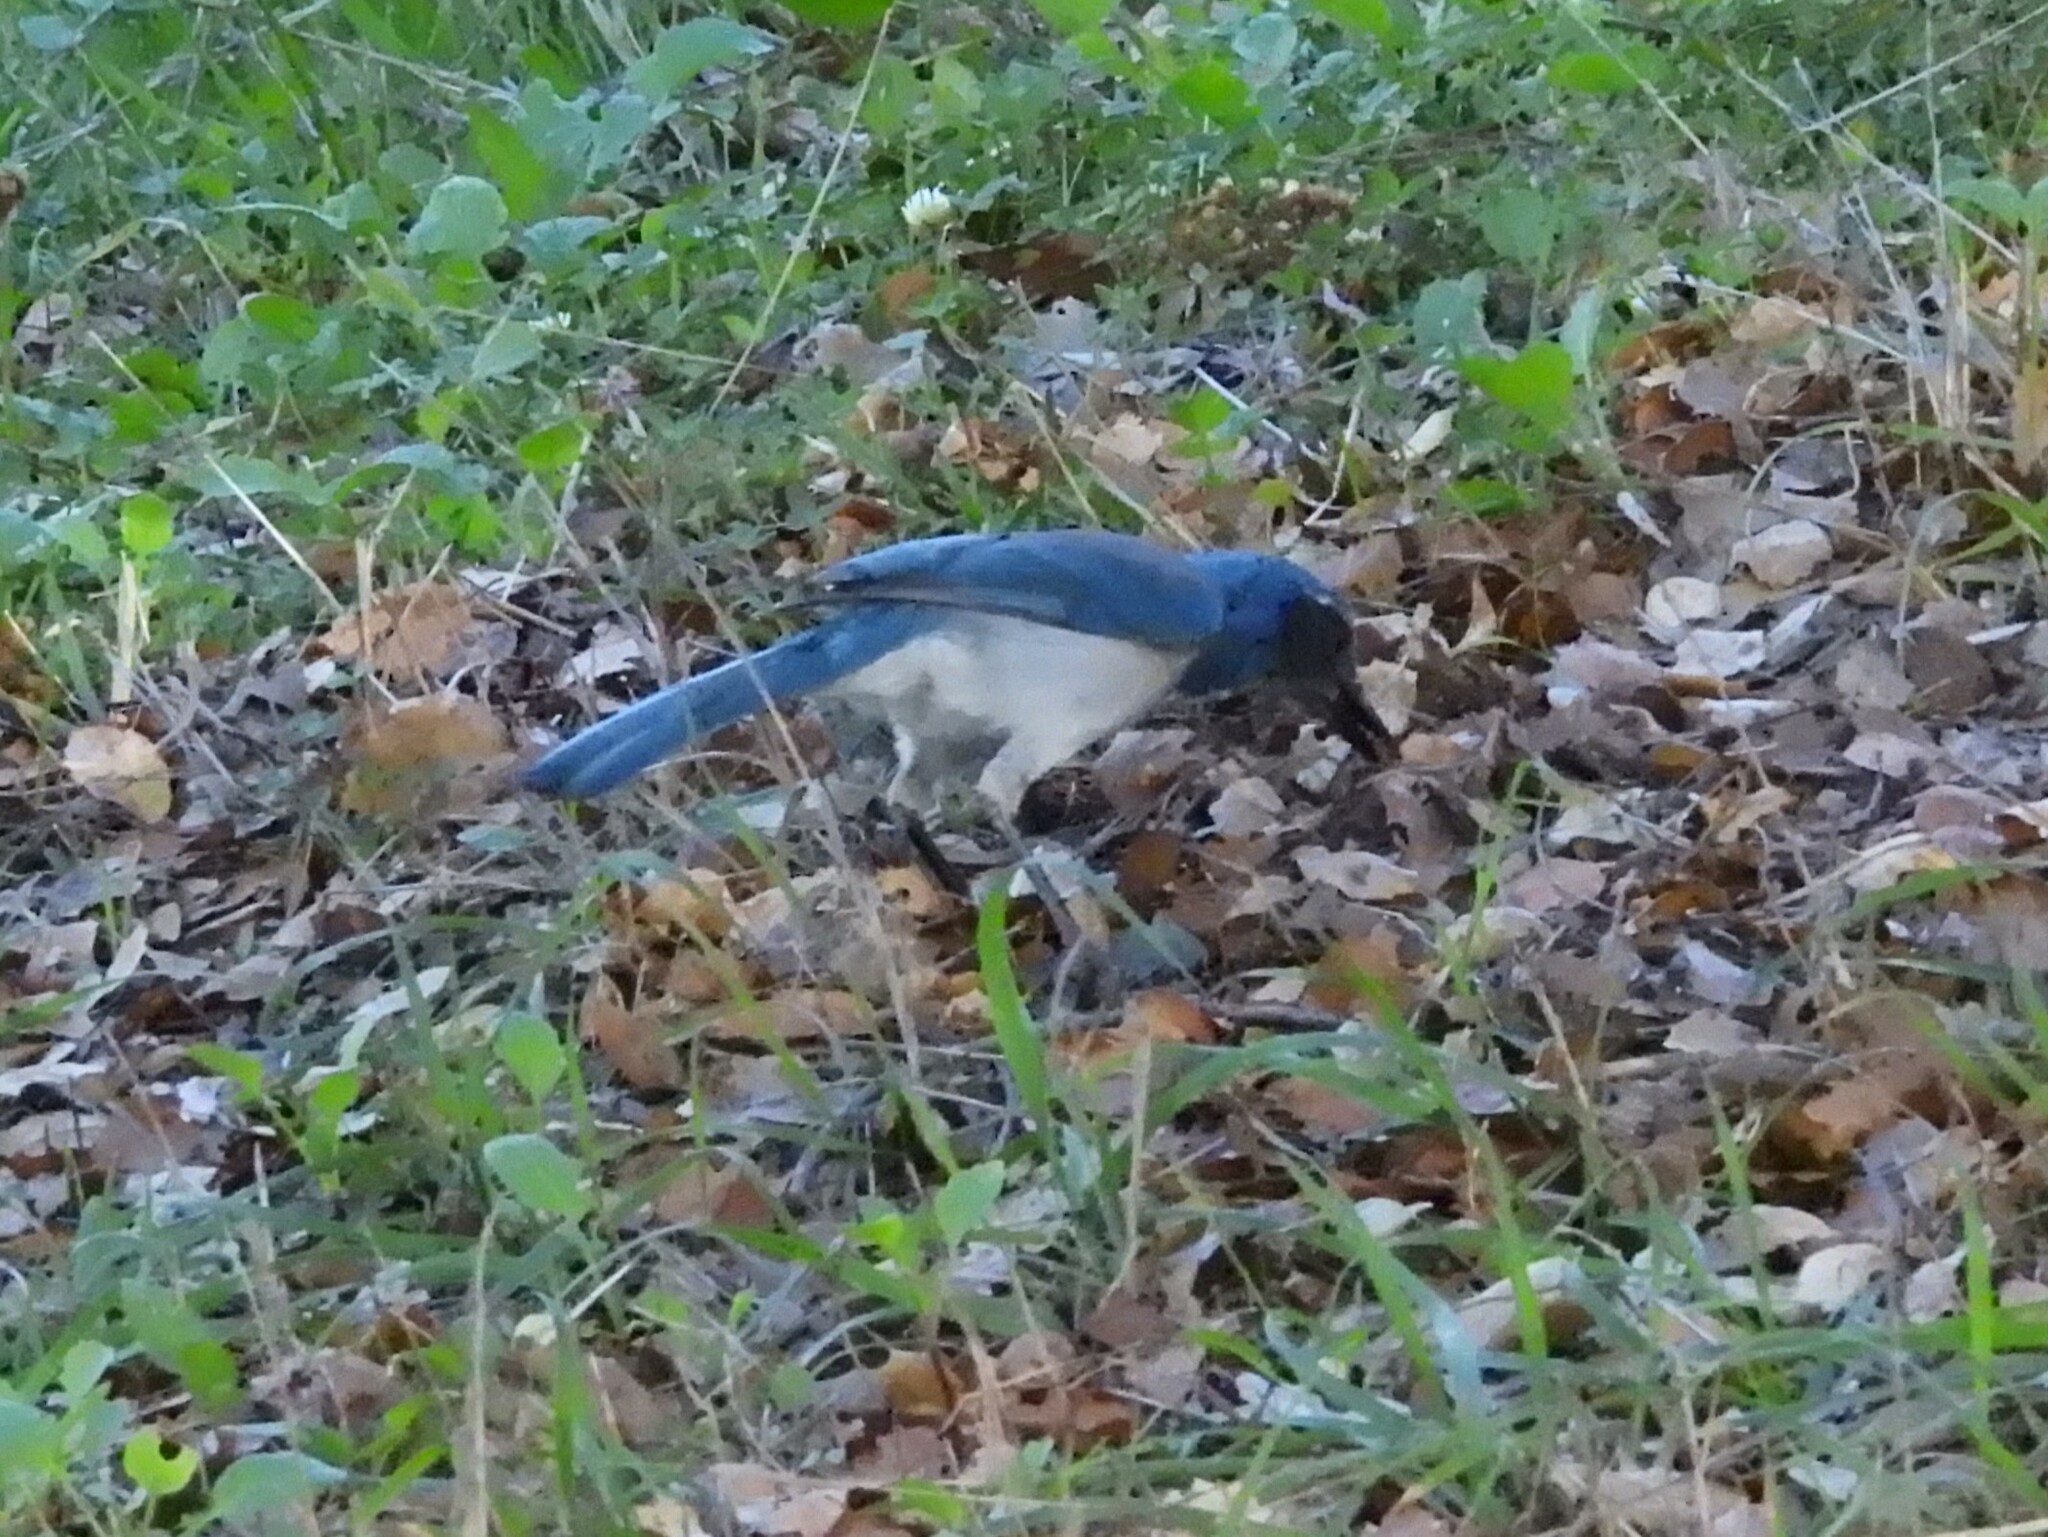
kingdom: Animalia
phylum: Chordata
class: Aves
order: Passeriformes
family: Corvidae
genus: Aphelocoma
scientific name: Aphelocoma californica
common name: California scrub-jay
